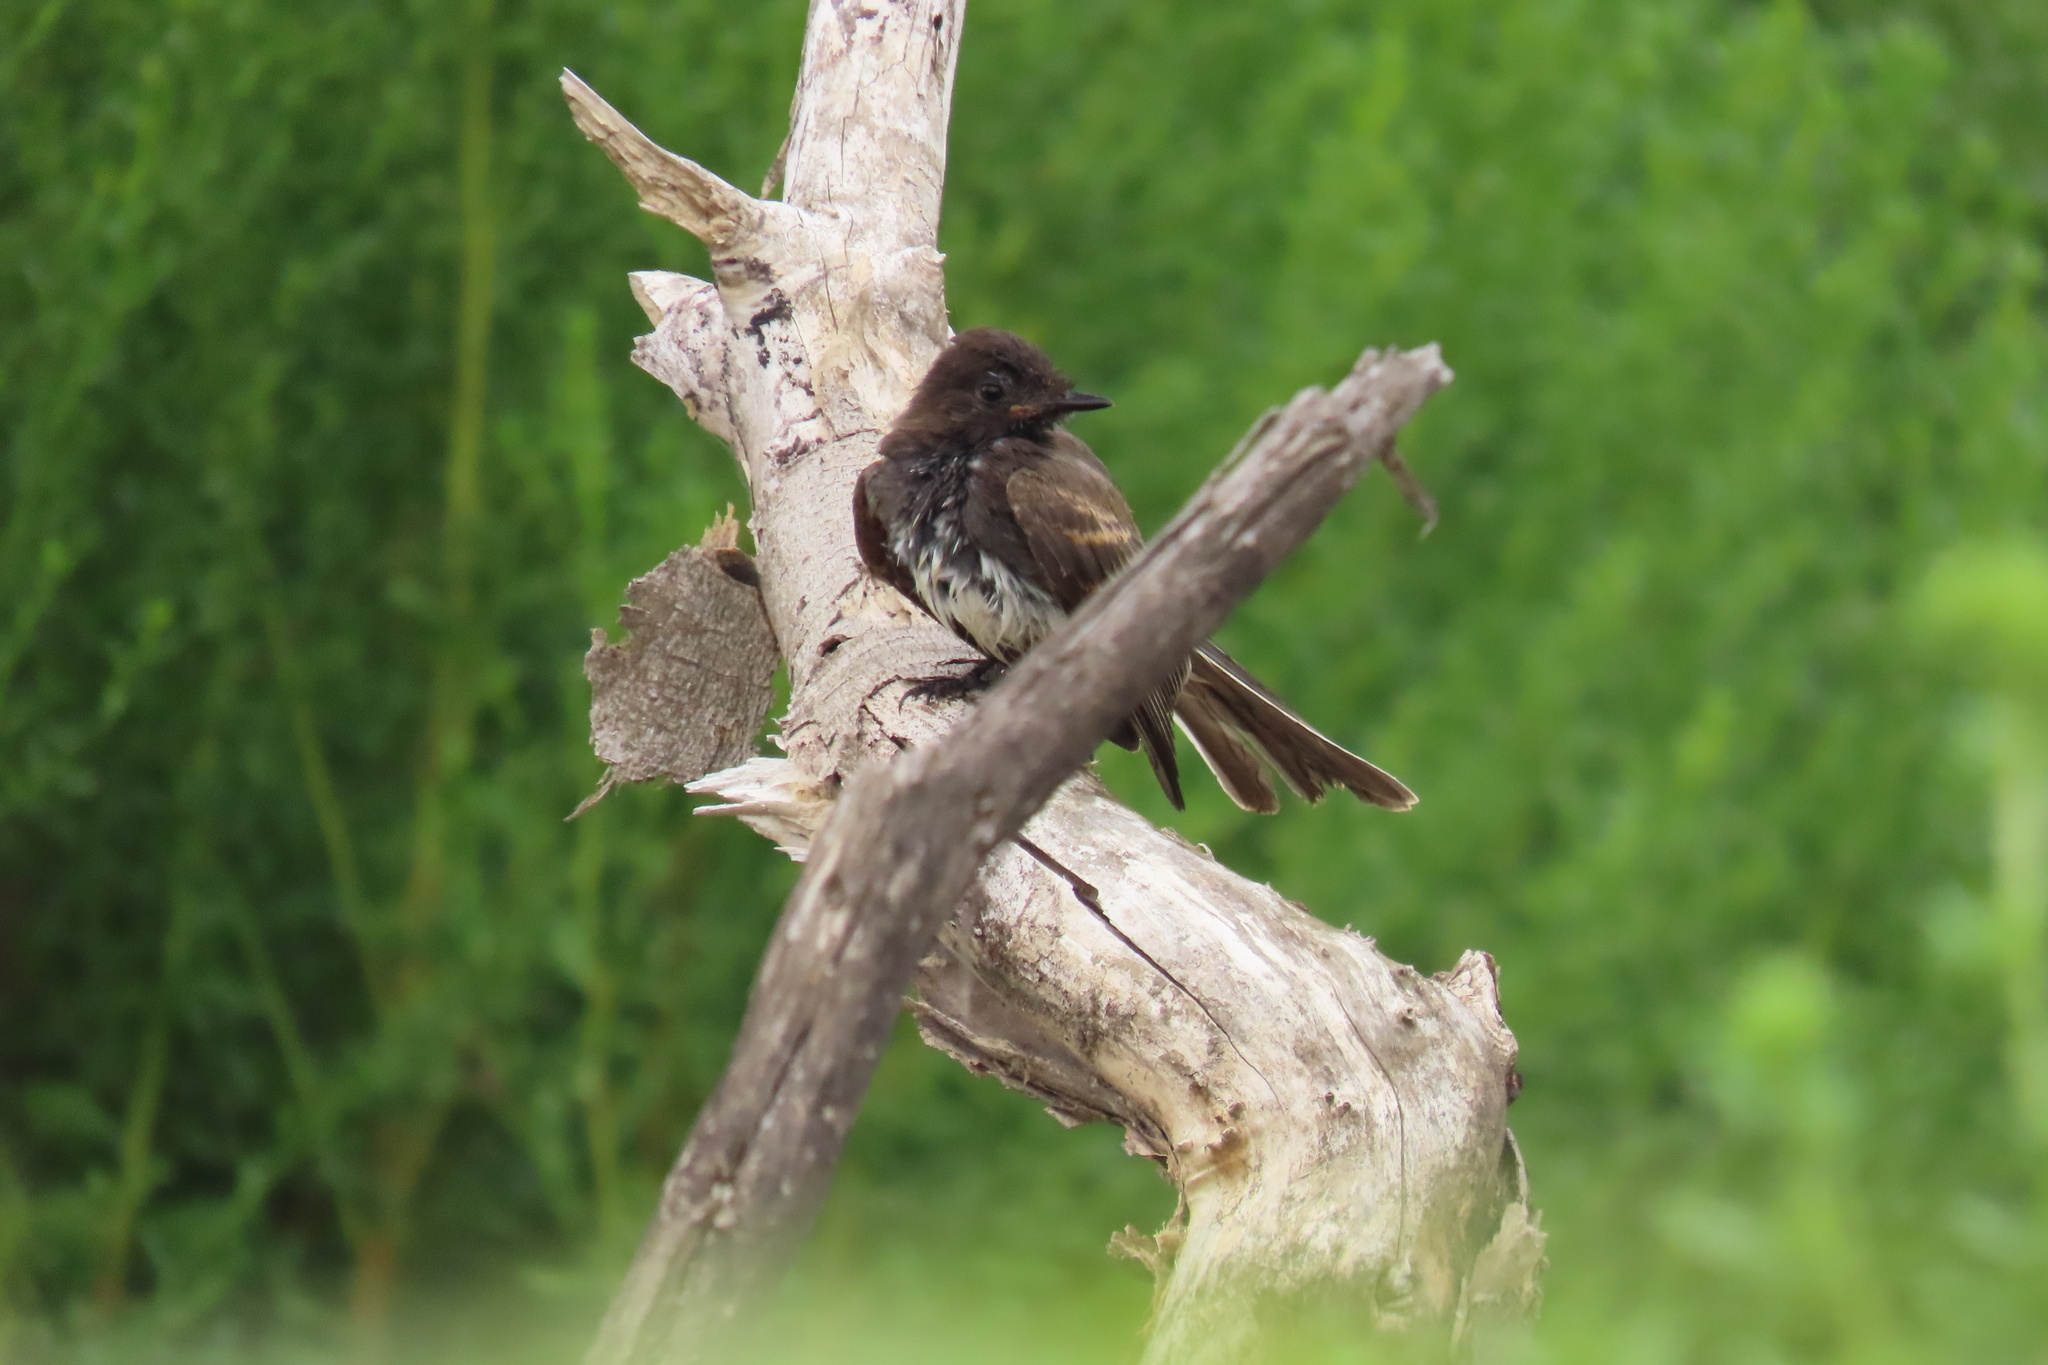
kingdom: Animalia
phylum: Chordata
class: Aves
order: Passeriformes
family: Tyrannidae
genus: Sayornis
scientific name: Sayornis nigricans
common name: Black phoebe
